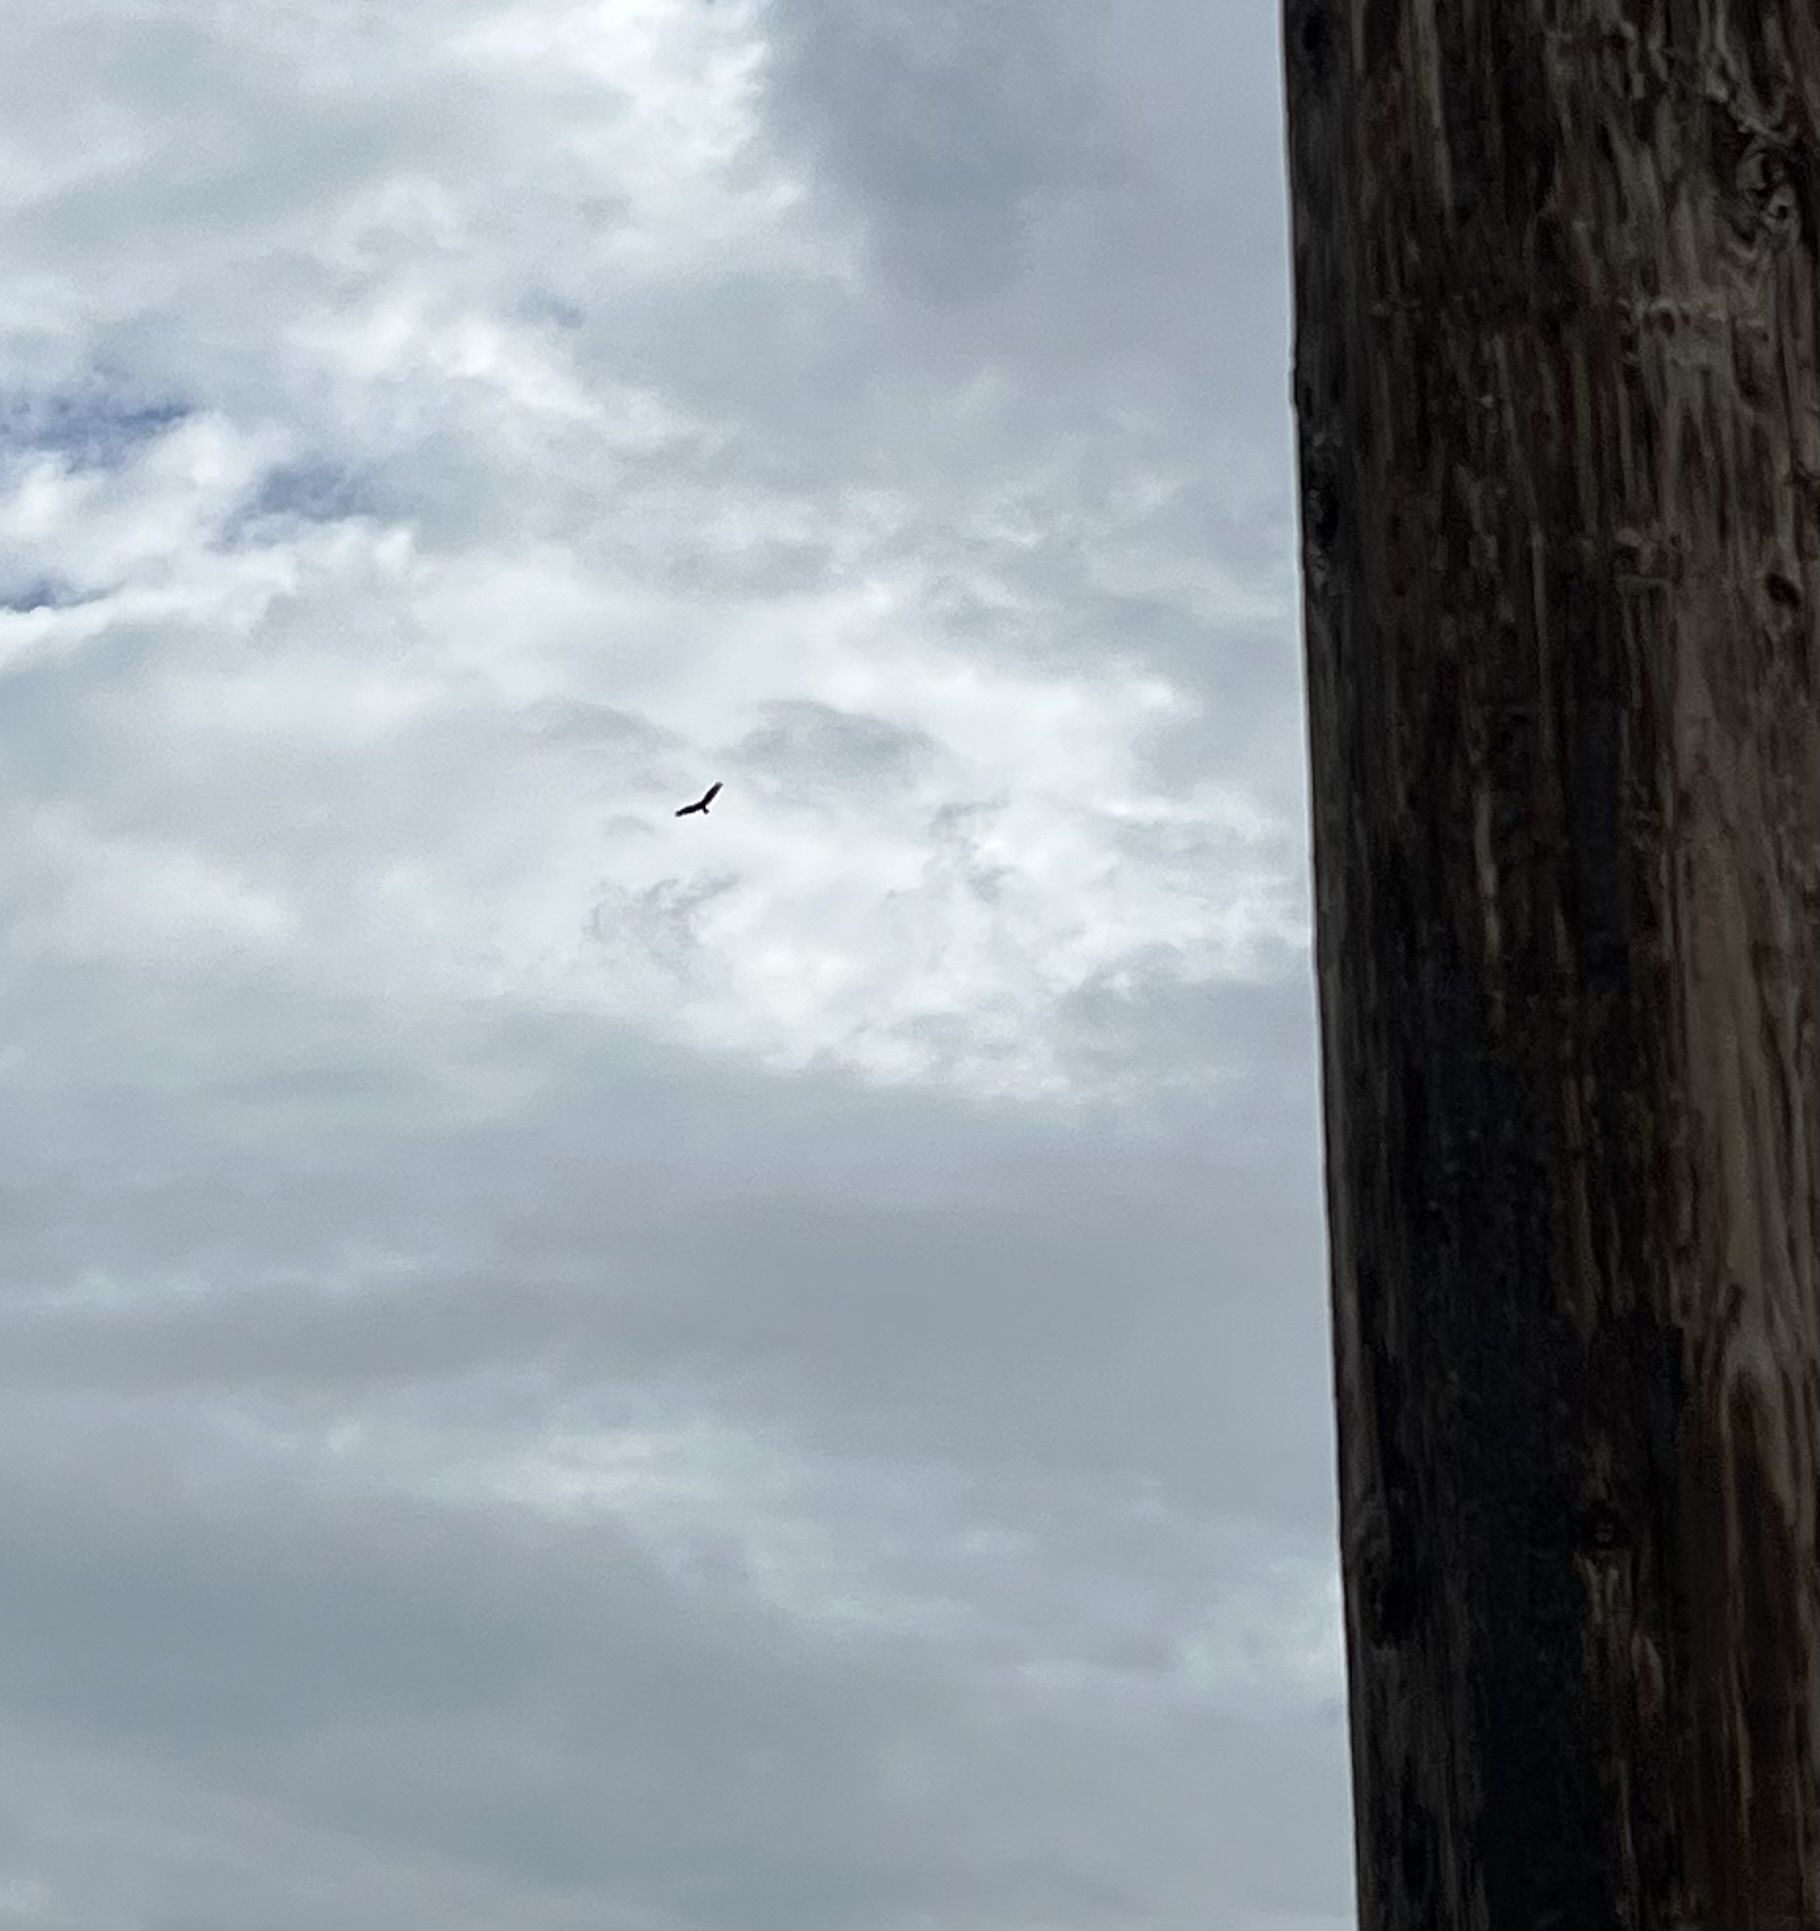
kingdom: Animalia
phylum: Chordata
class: Aves
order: Accipitriformes
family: Cathartidae
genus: Cathartes
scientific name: Cathartes aura
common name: Turkey vulture
